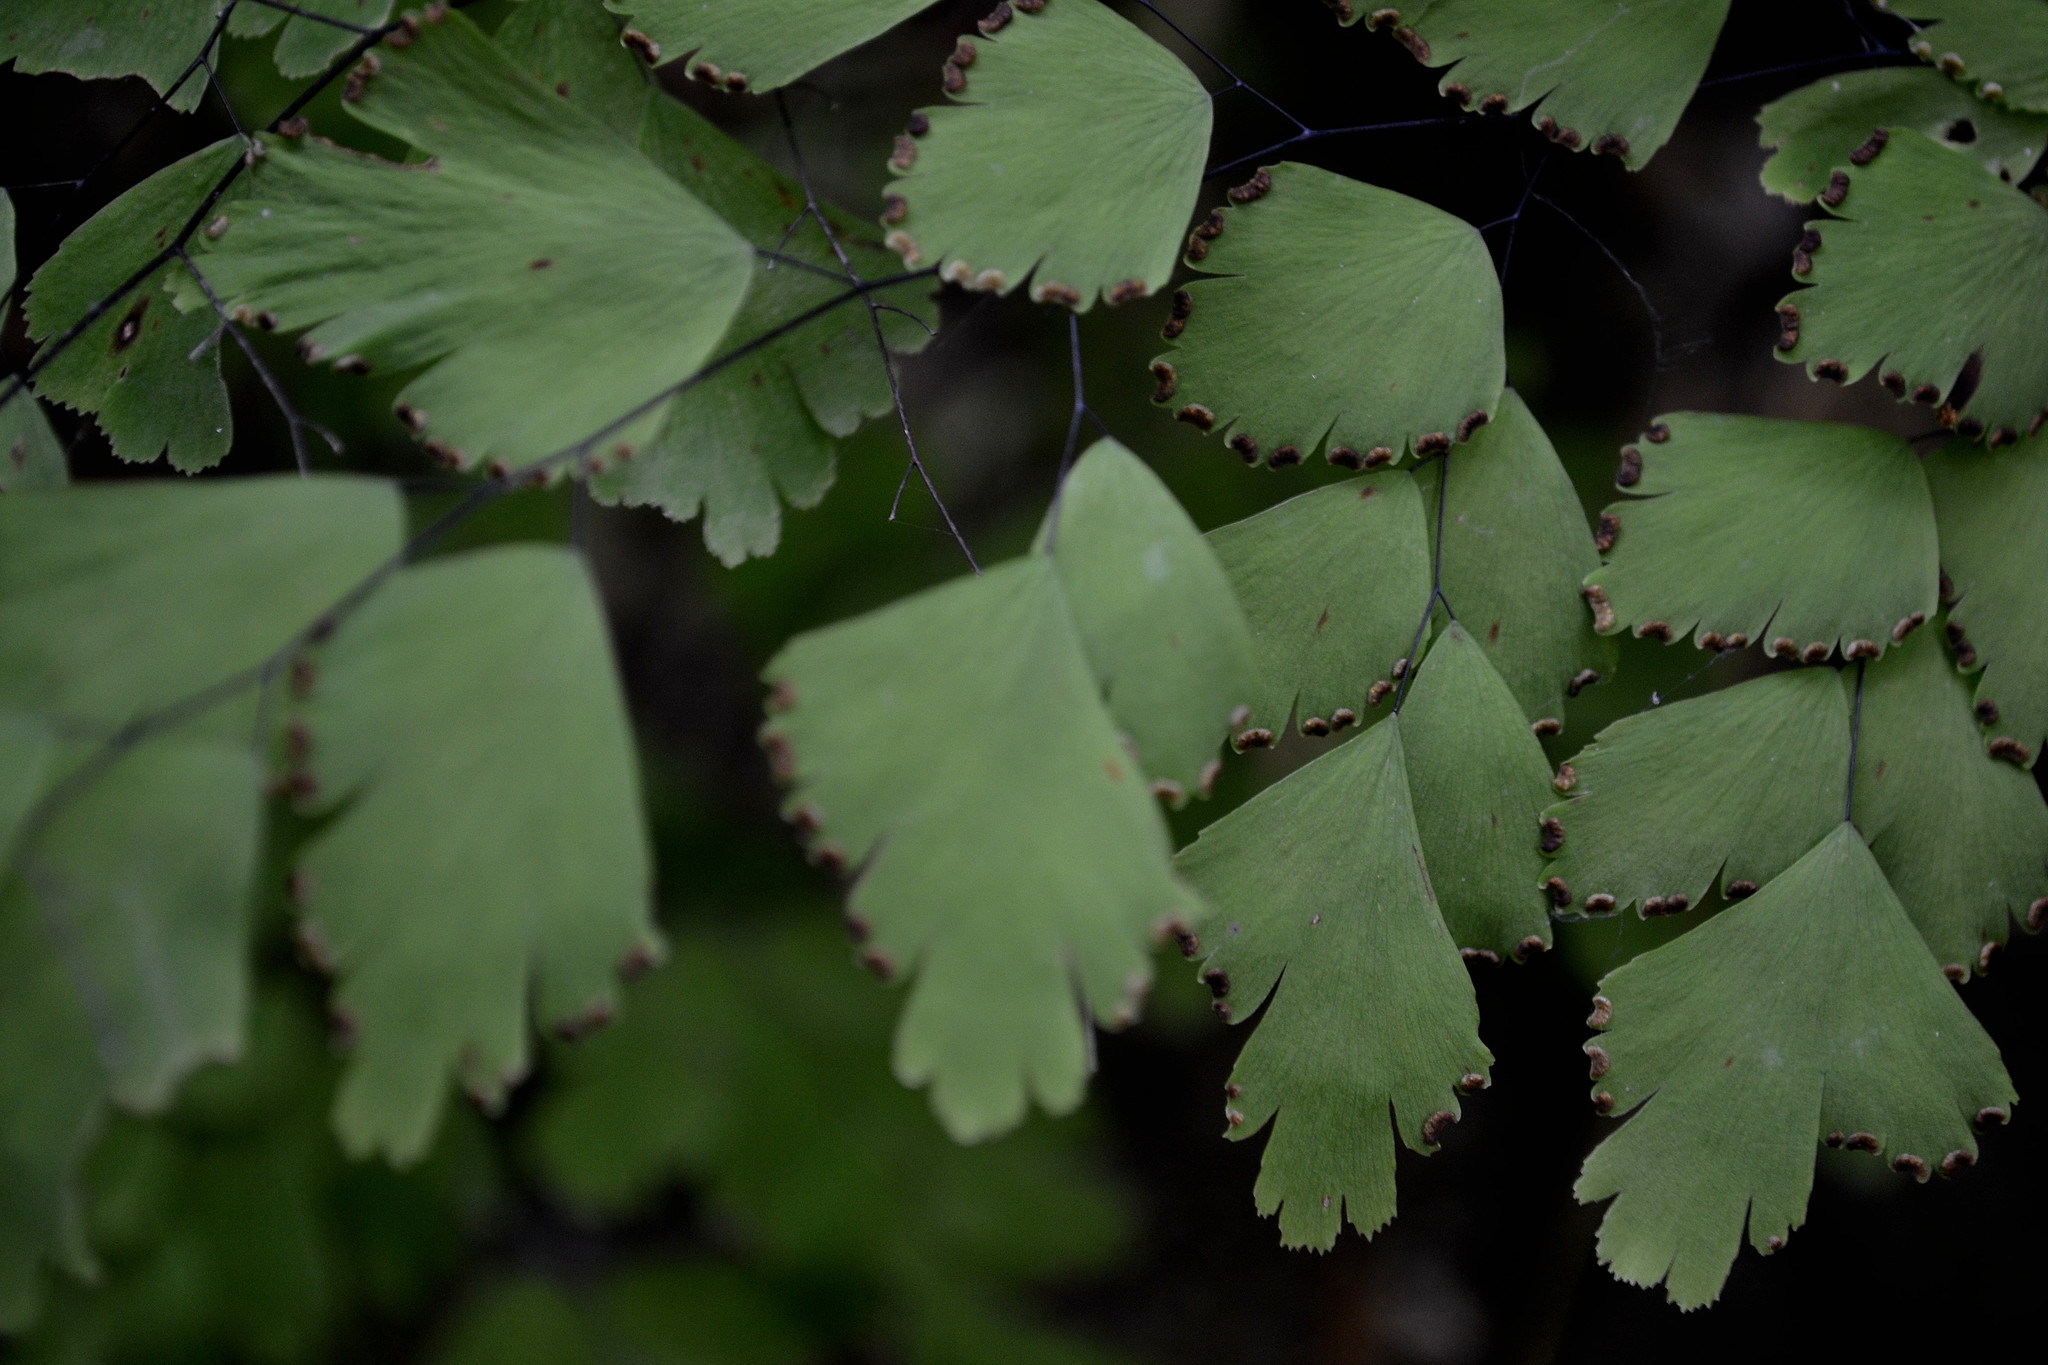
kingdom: Plantae
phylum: Tracheophyta
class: Polypodiopsida
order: Polypodiales
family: Pteridaceae
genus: Adiantum
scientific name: Adiantum tenerum
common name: Fan maidenhair
